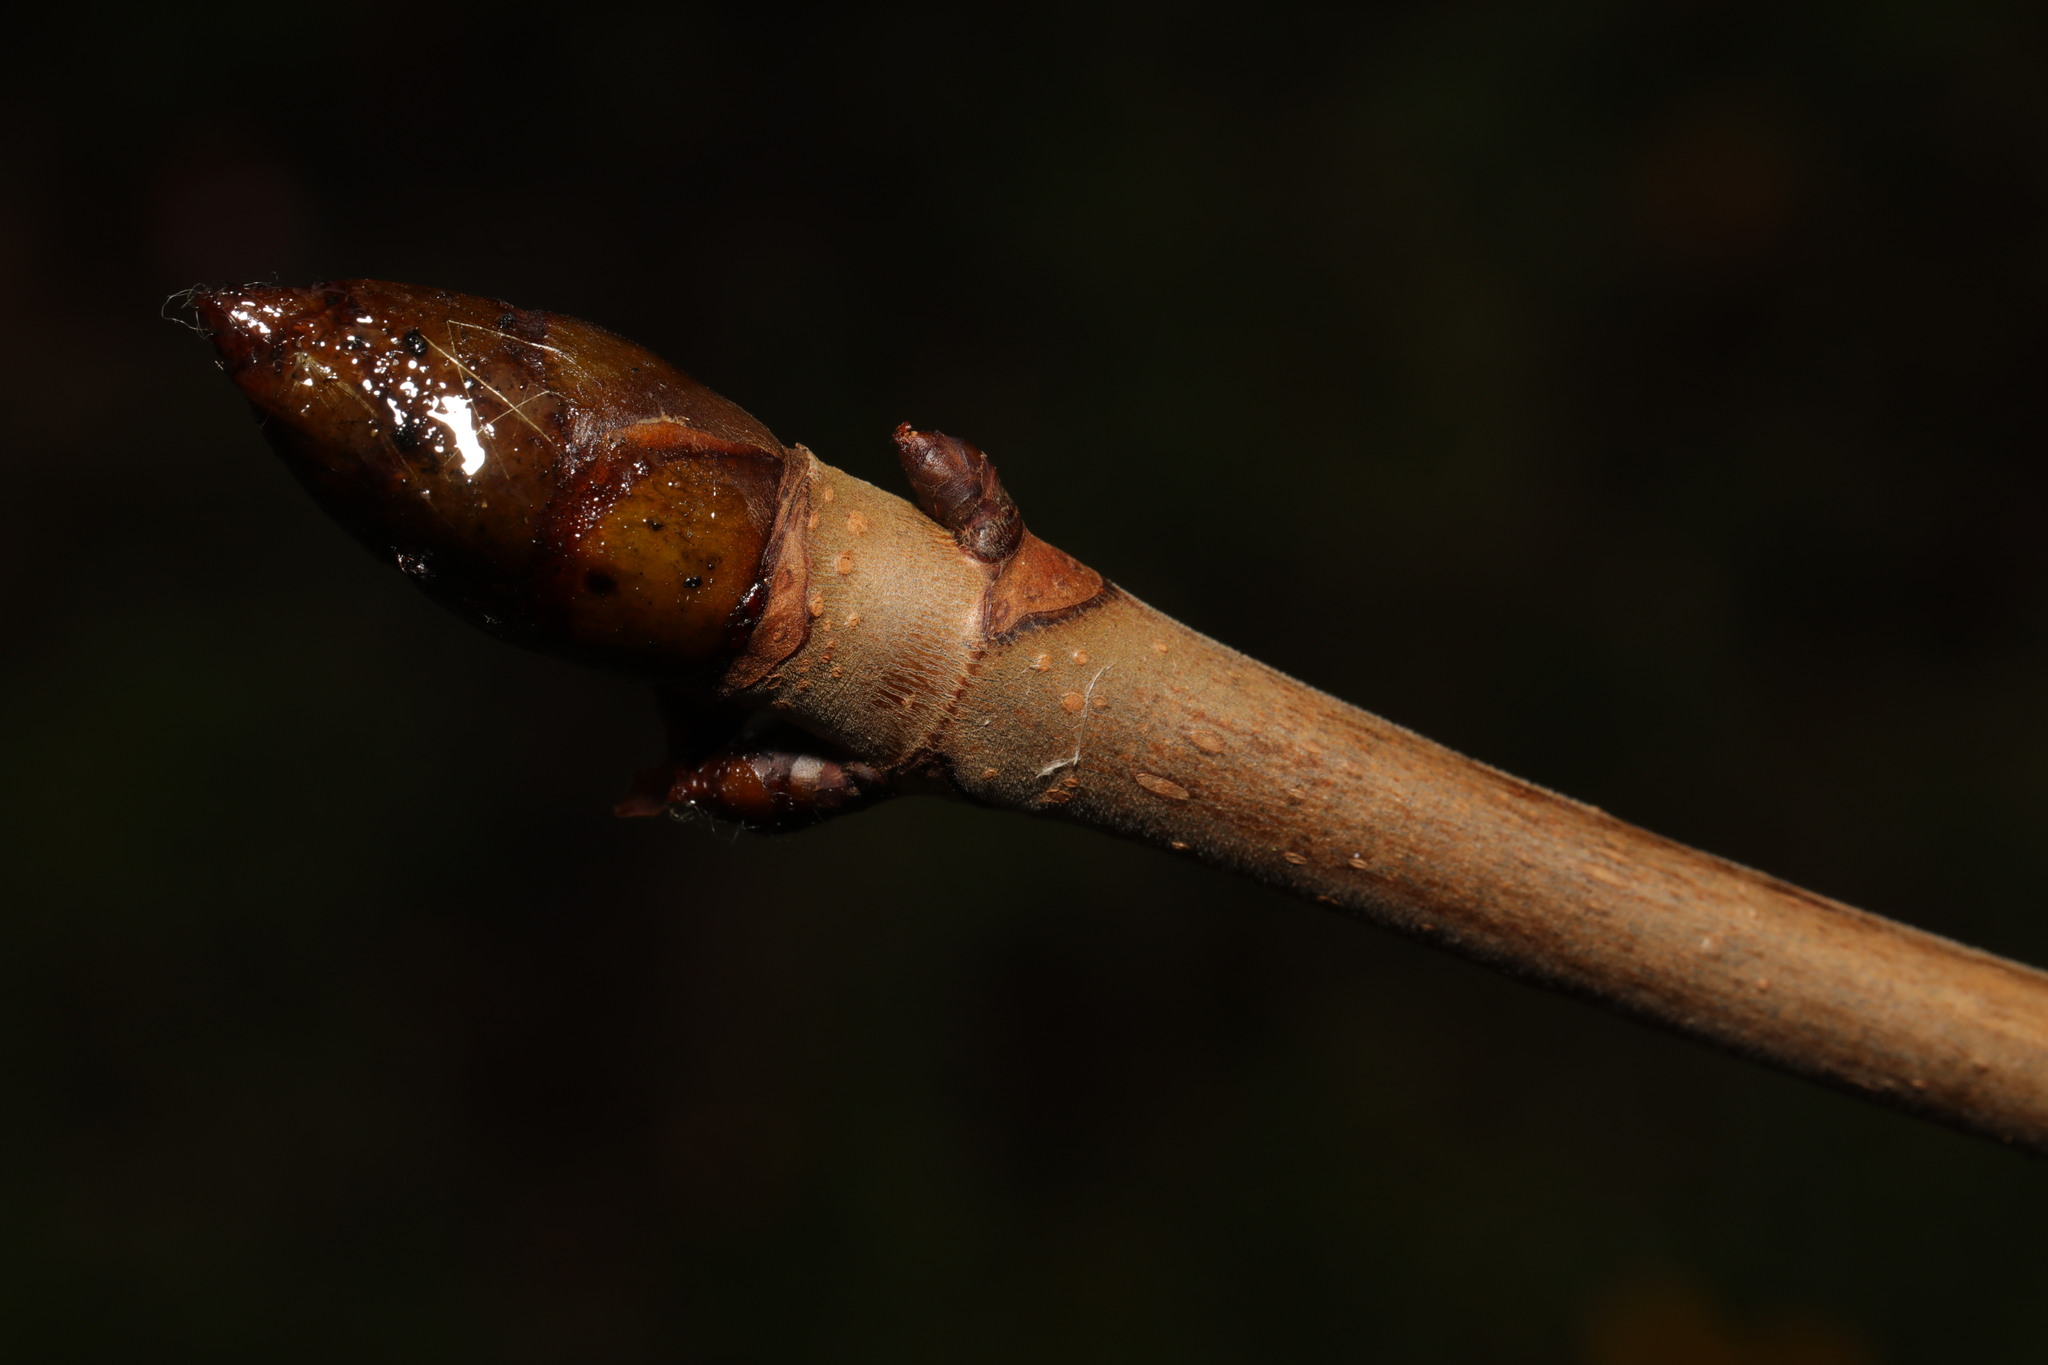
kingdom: Plantae
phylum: Tracheophyta
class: Magnoliopsida
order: Sapindales
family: Sapindaceae
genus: Aesculus
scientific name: Aesculus hippocastanum
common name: Horse-chestnut
